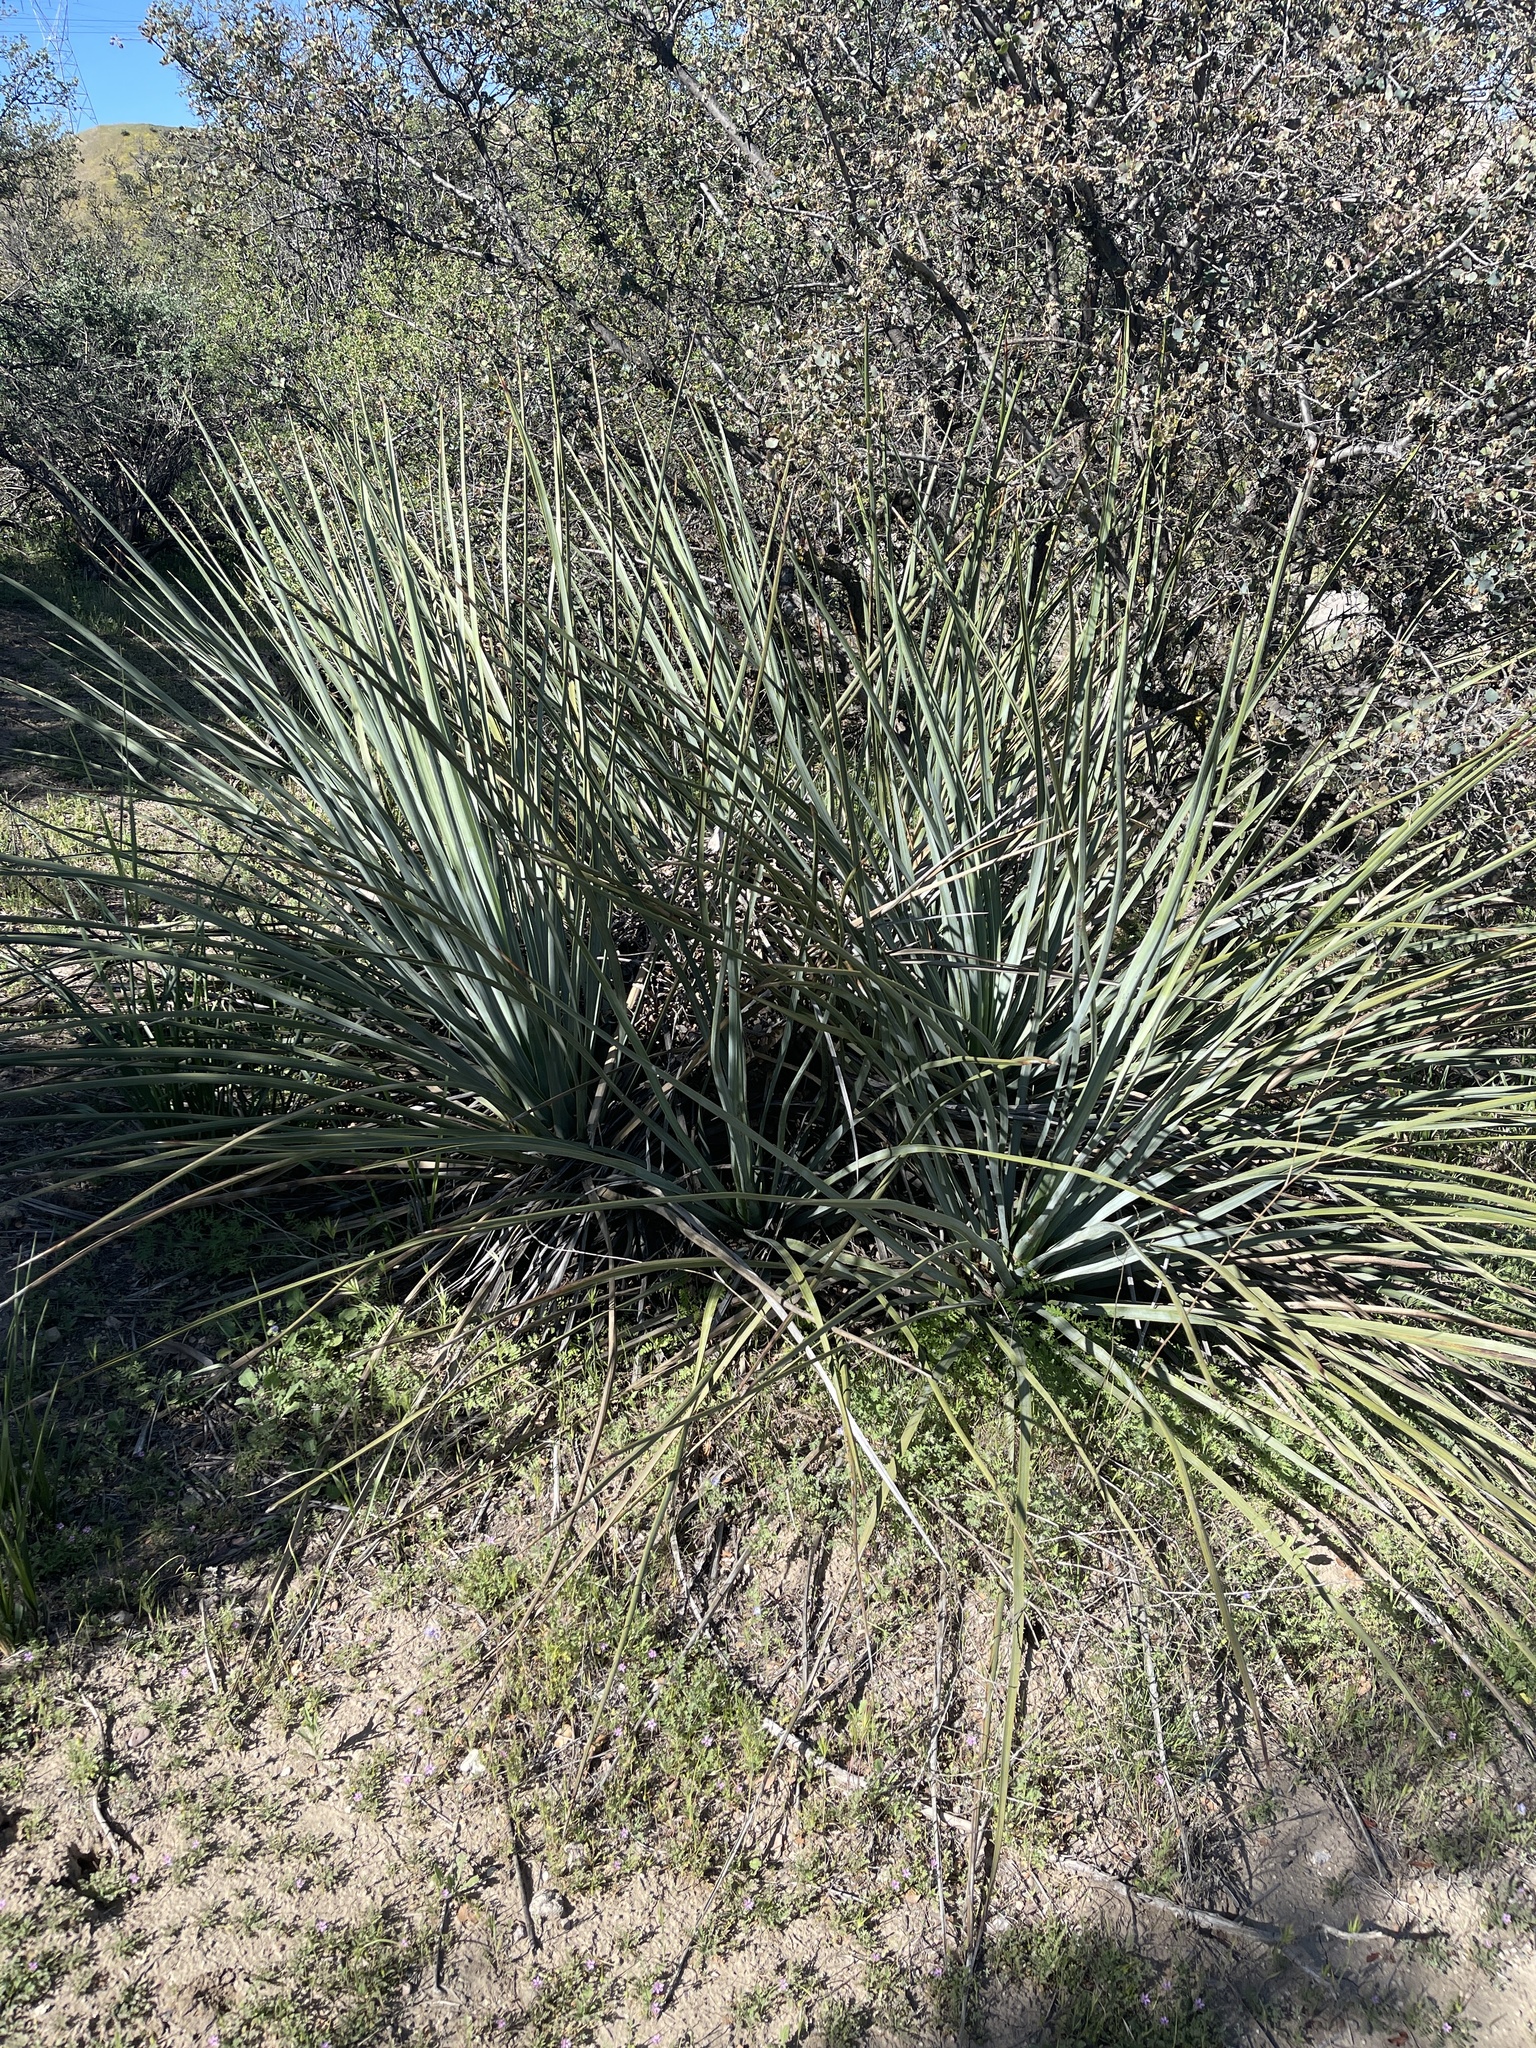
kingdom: Plantae
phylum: Tracheophyta
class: Liliopsida
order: Asparagales
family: Asparagaceae
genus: Hesperoyucca
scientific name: Hesperoyucca whipplei
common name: Our lord's-candle
